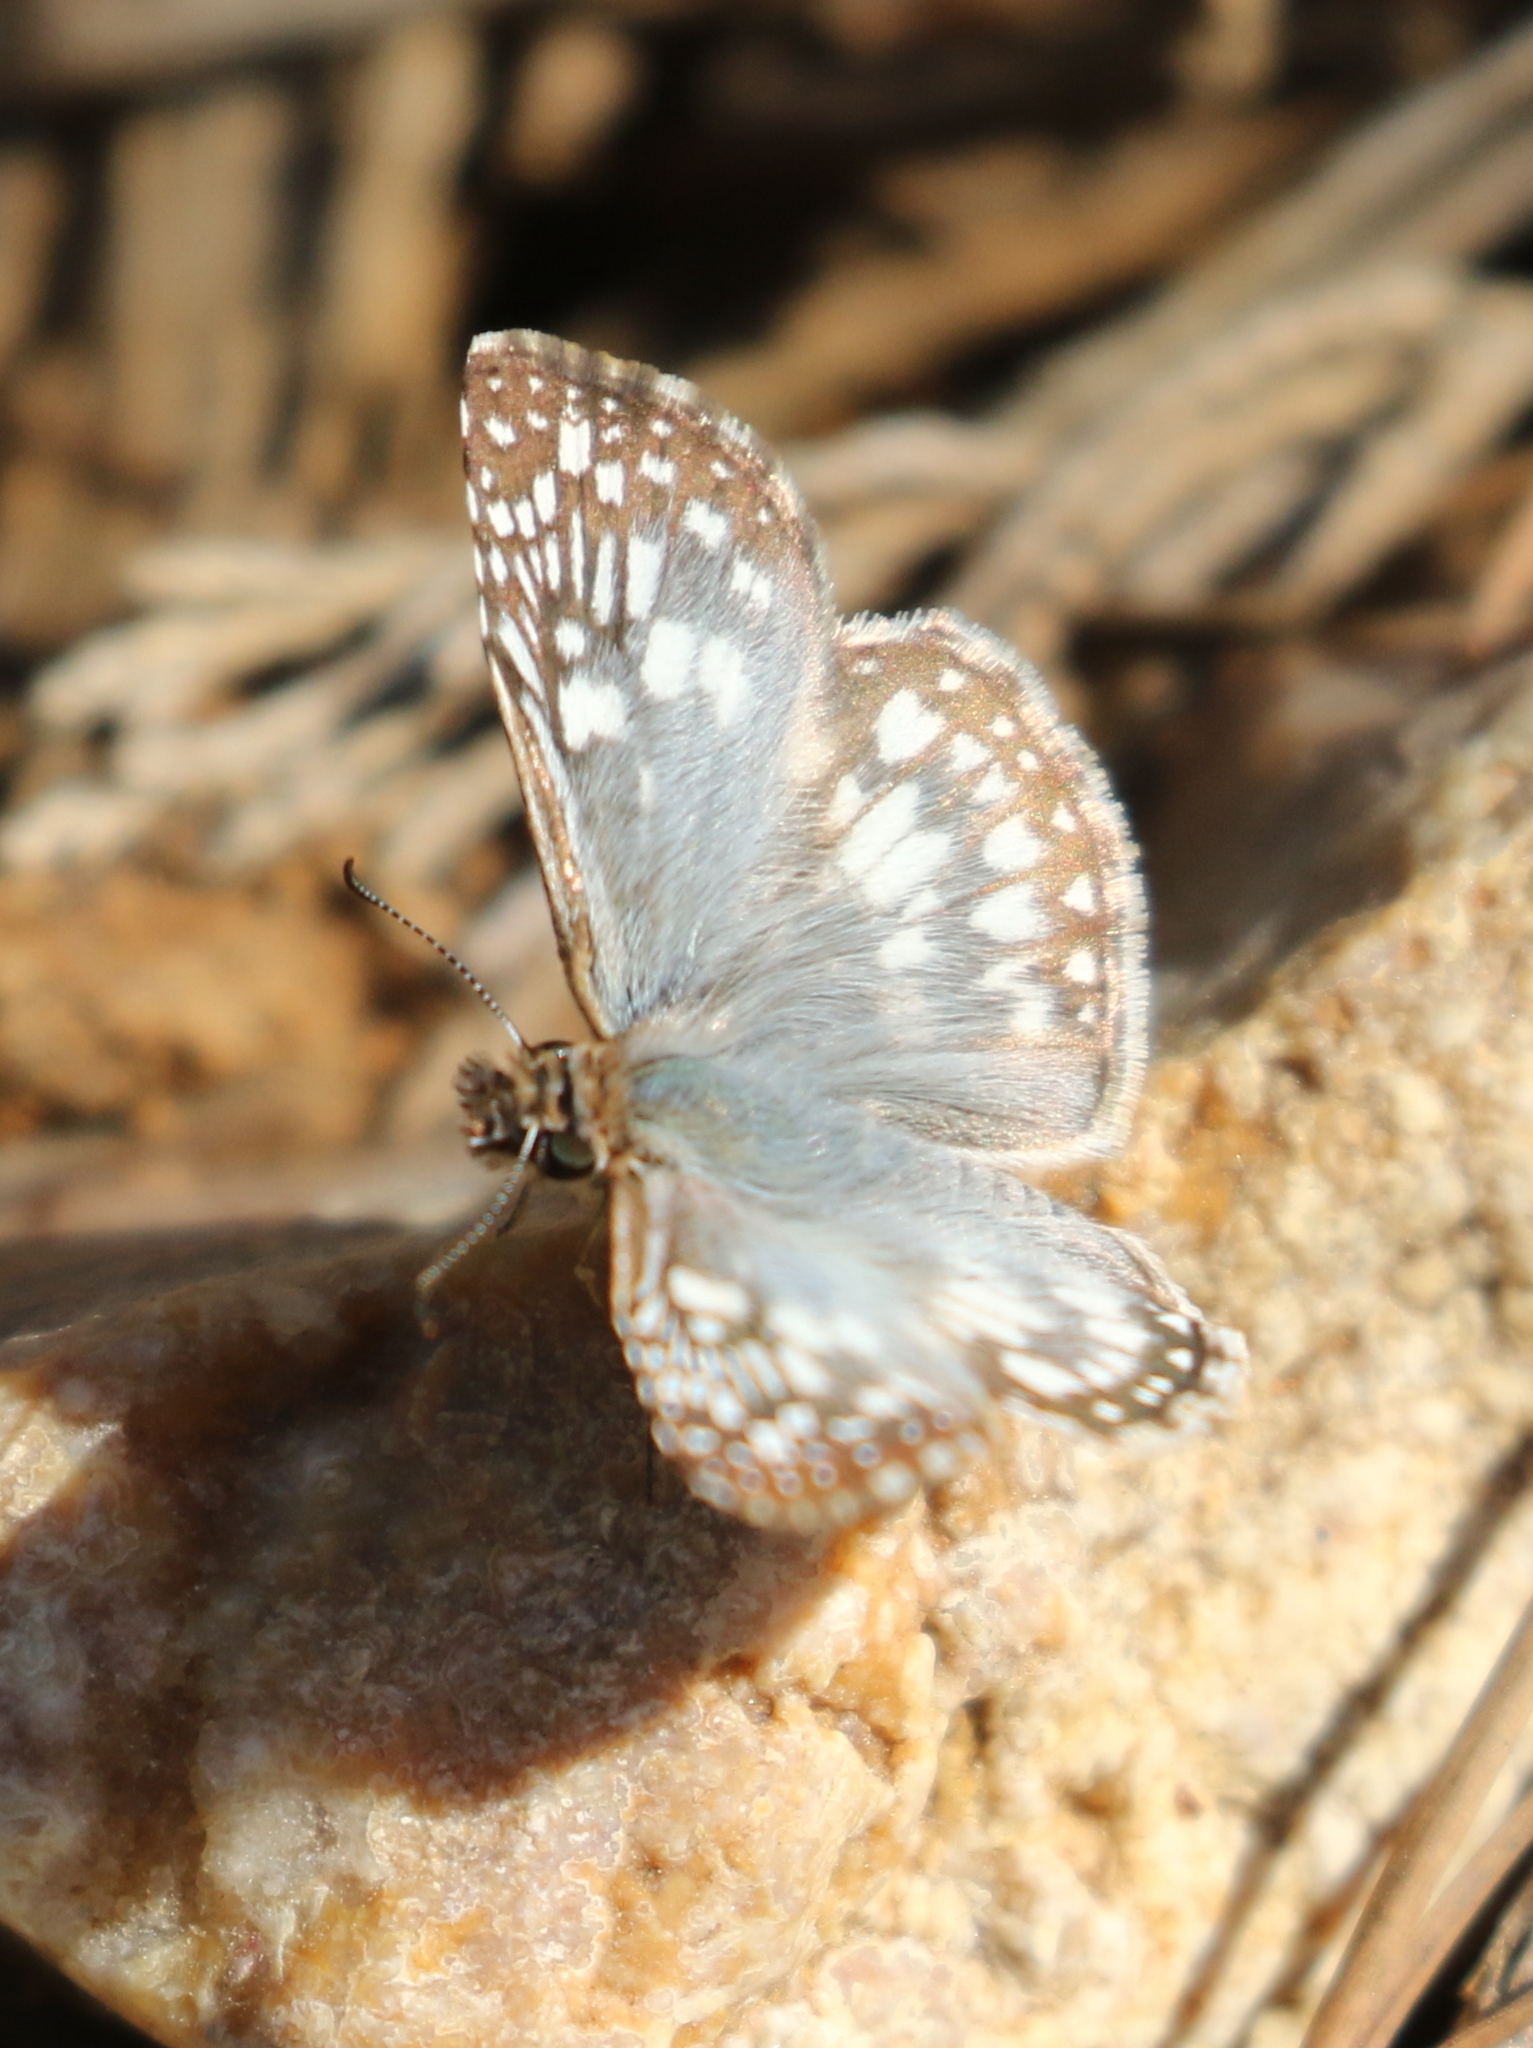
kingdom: Animalia
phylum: Arthropoda
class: Insecta
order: Lepidoptera
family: Hesperiidae
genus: Pyrgus
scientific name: Pyrgus oileus
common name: Tropical checkered-skipper
